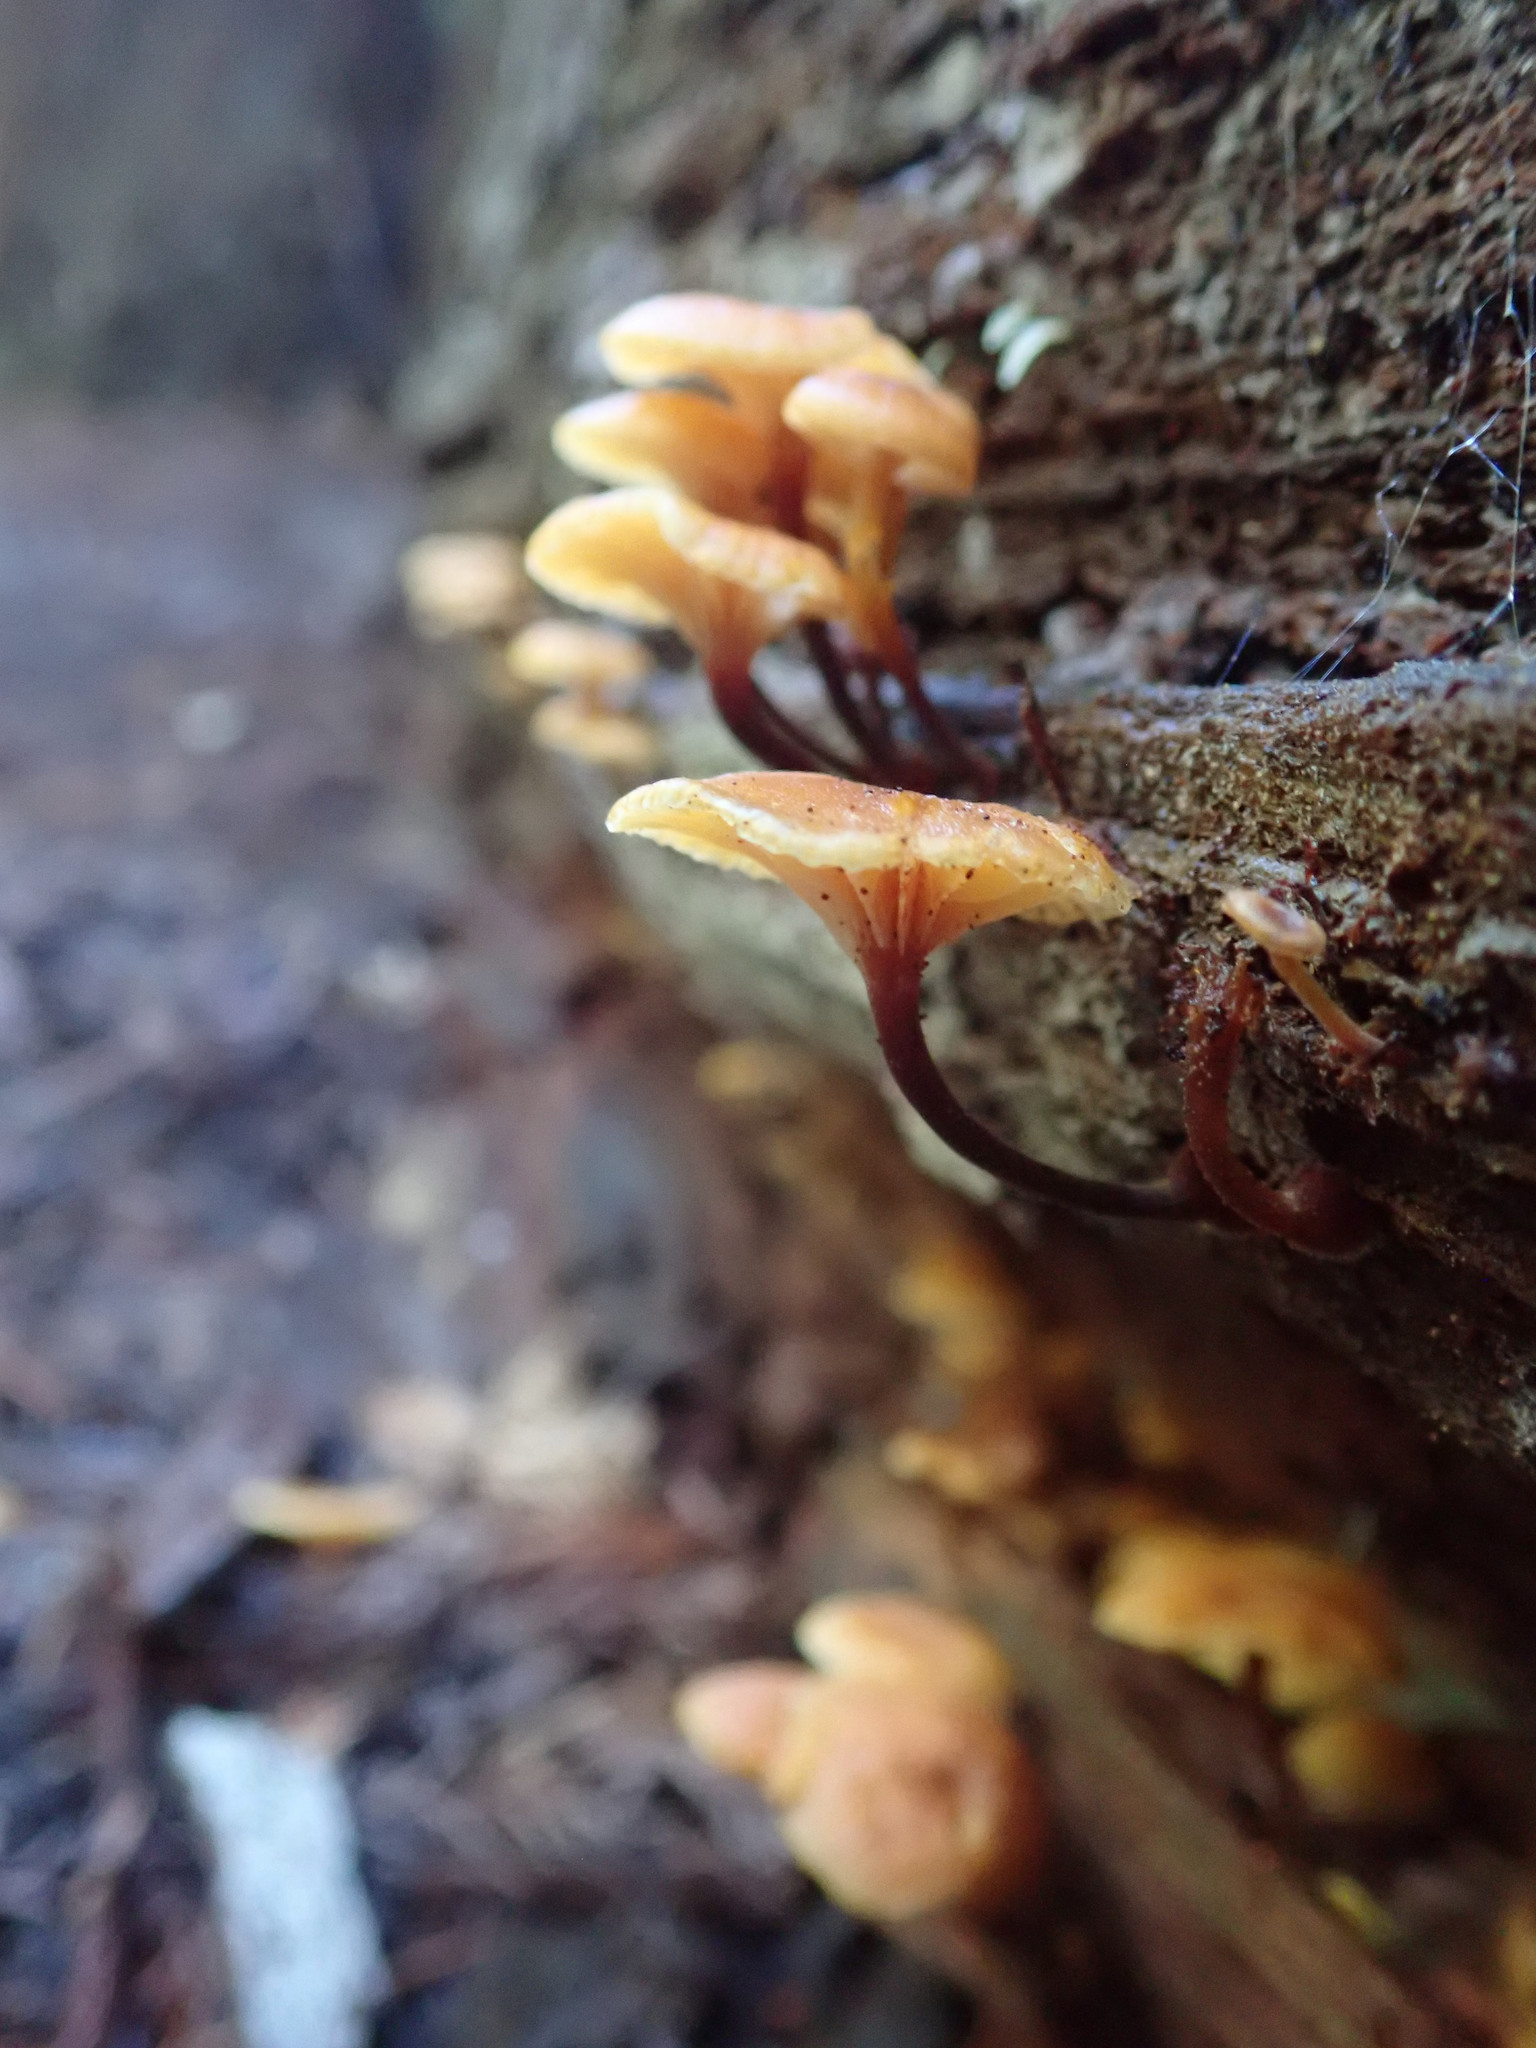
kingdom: Fungi
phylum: Basidiomycota
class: Agaricomycetes
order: Agaricales
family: Mycenaceae
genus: Xeromphalina
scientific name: Xeromphalina campanella
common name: Pinewood gingertail
